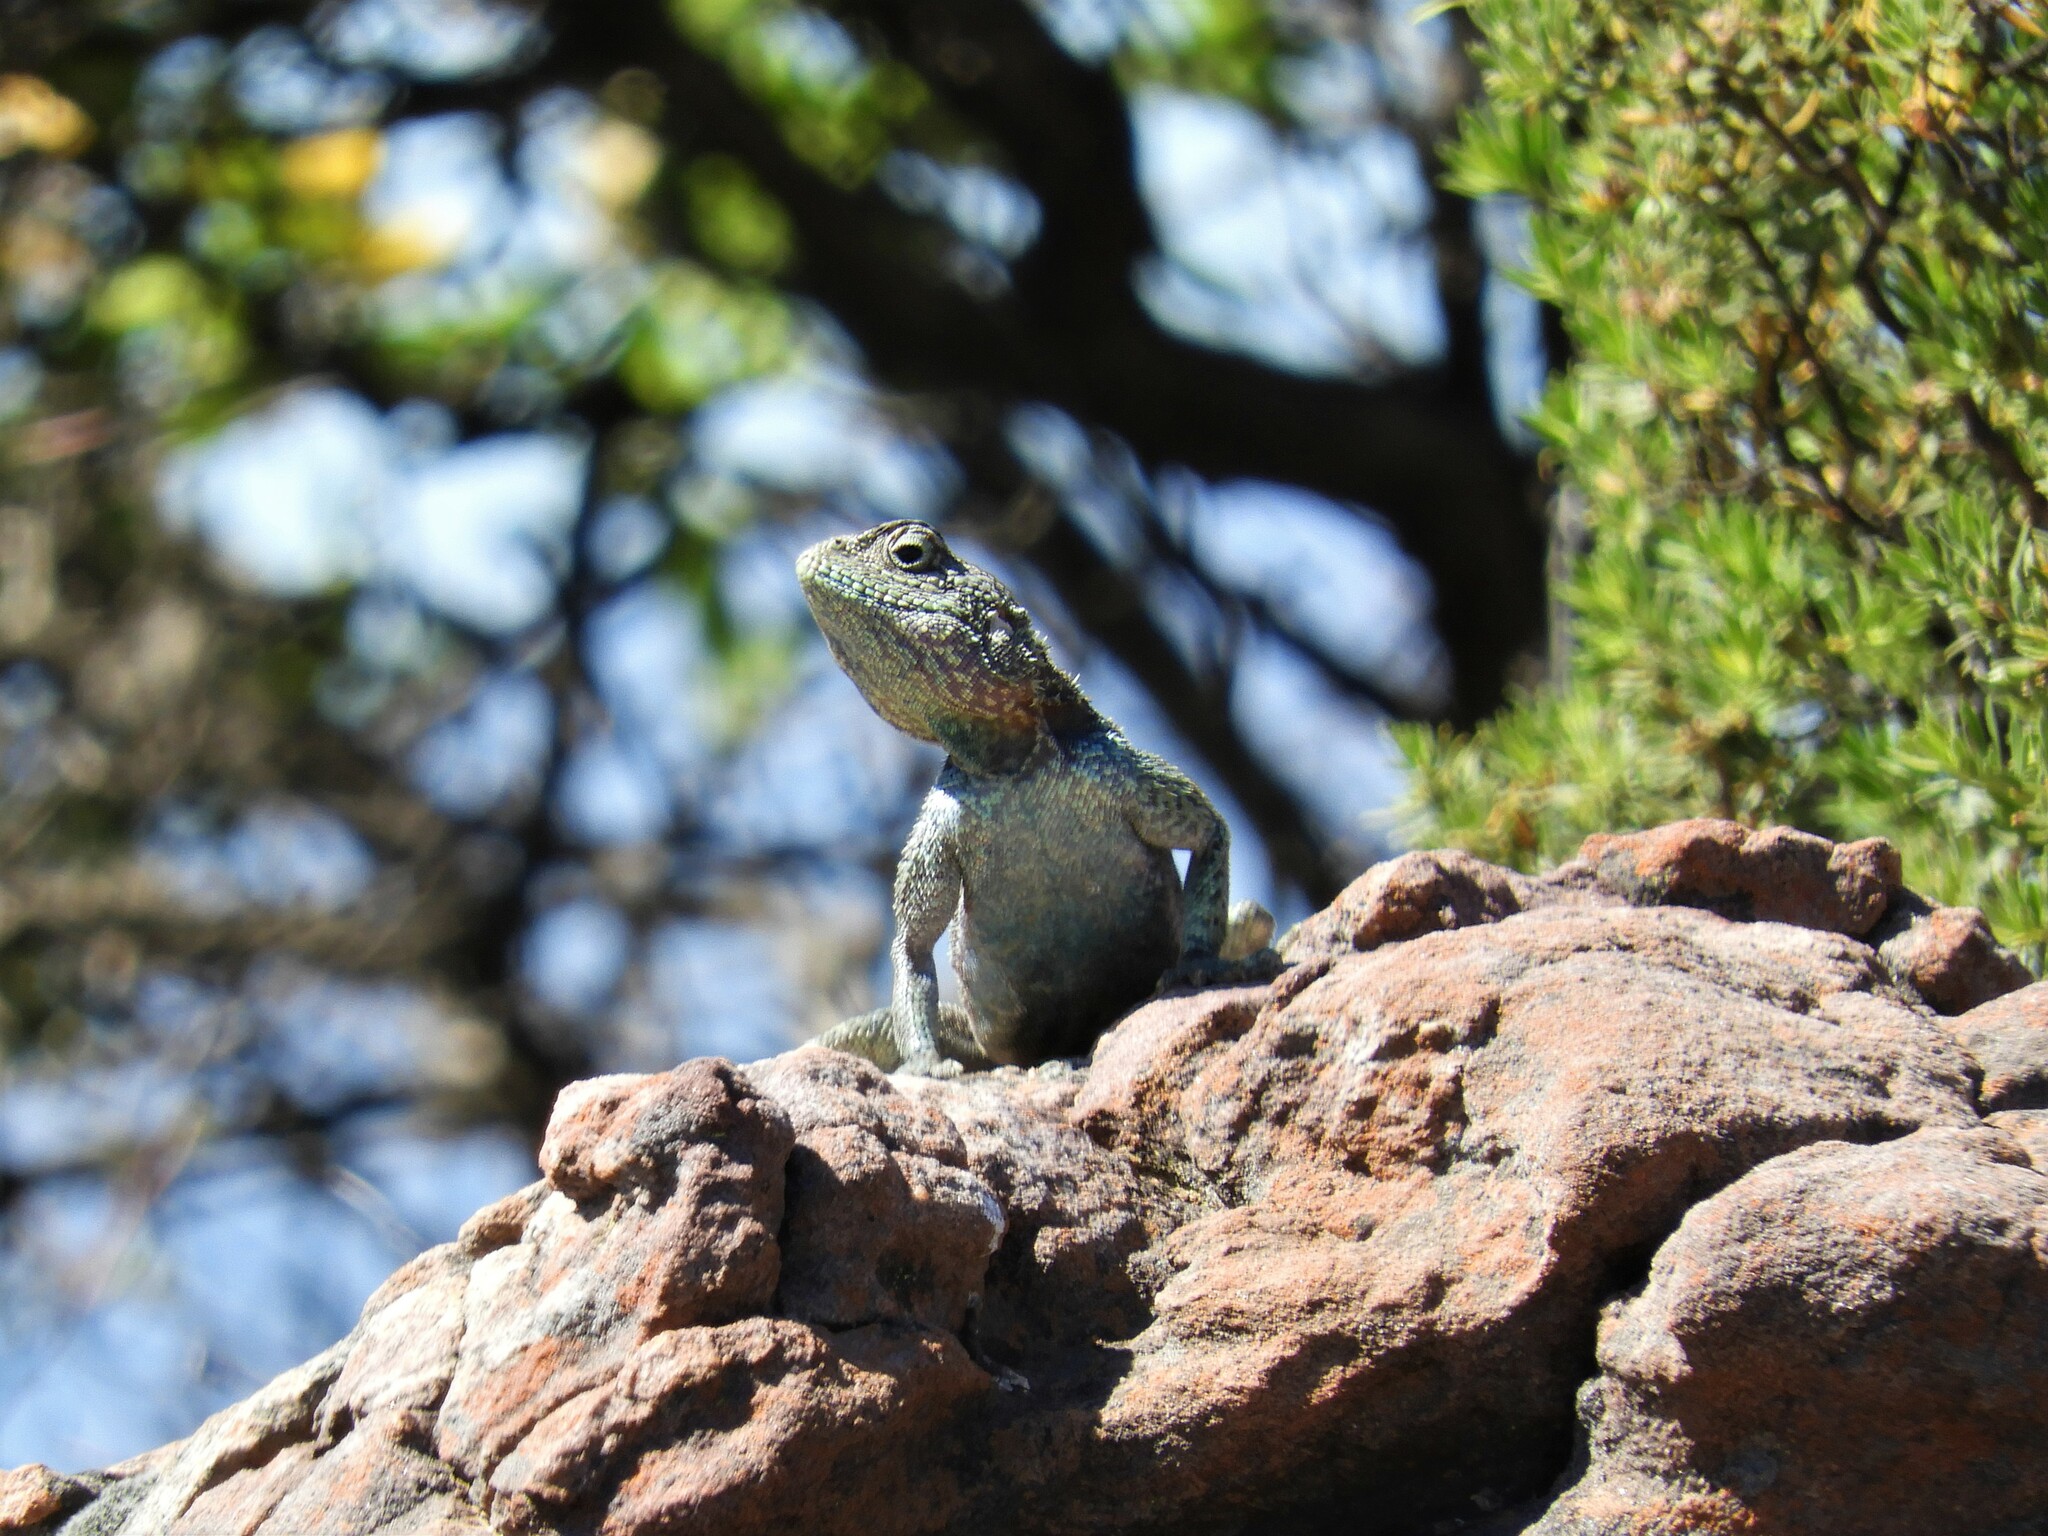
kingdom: Animalia
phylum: Chordata
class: Squamata
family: Agamidae
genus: Agama
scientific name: Agama atra
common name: Southern african rock agama
